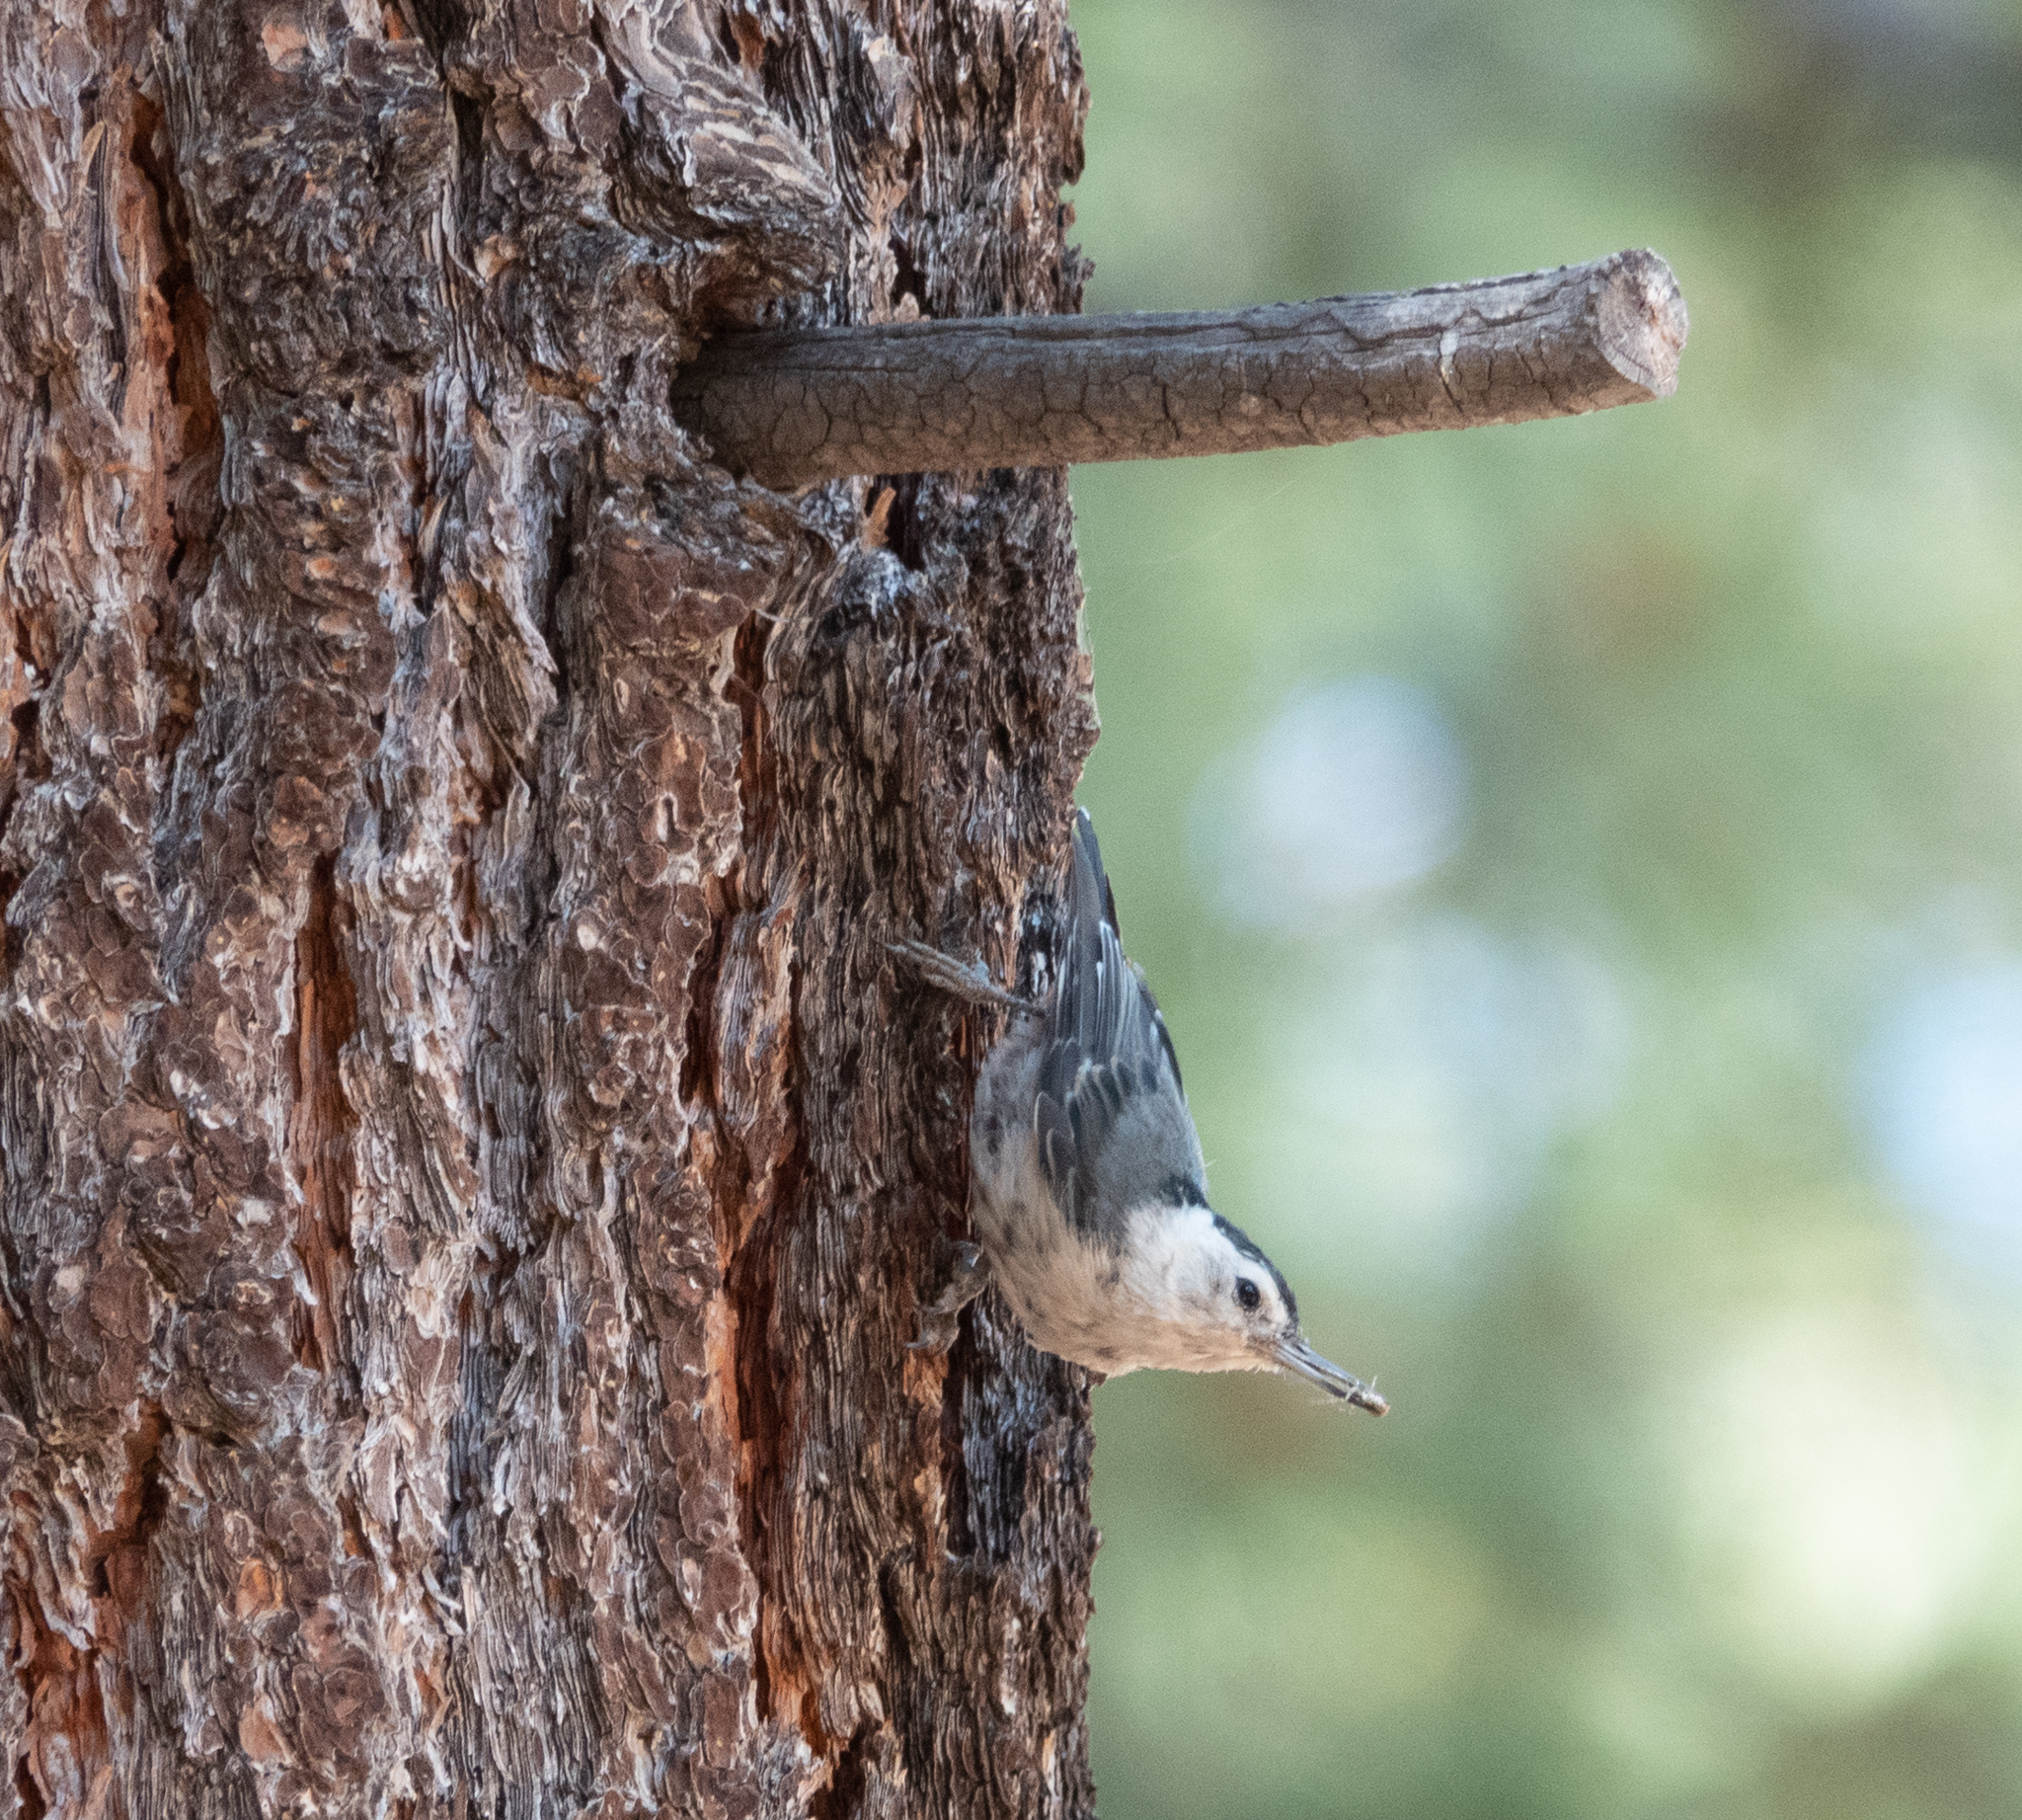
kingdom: Animalia
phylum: Chordata
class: Aves
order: Passeriformes
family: Sittidae
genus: Sitta
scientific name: Sitta carolinensis
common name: White-breasted nuthatch
